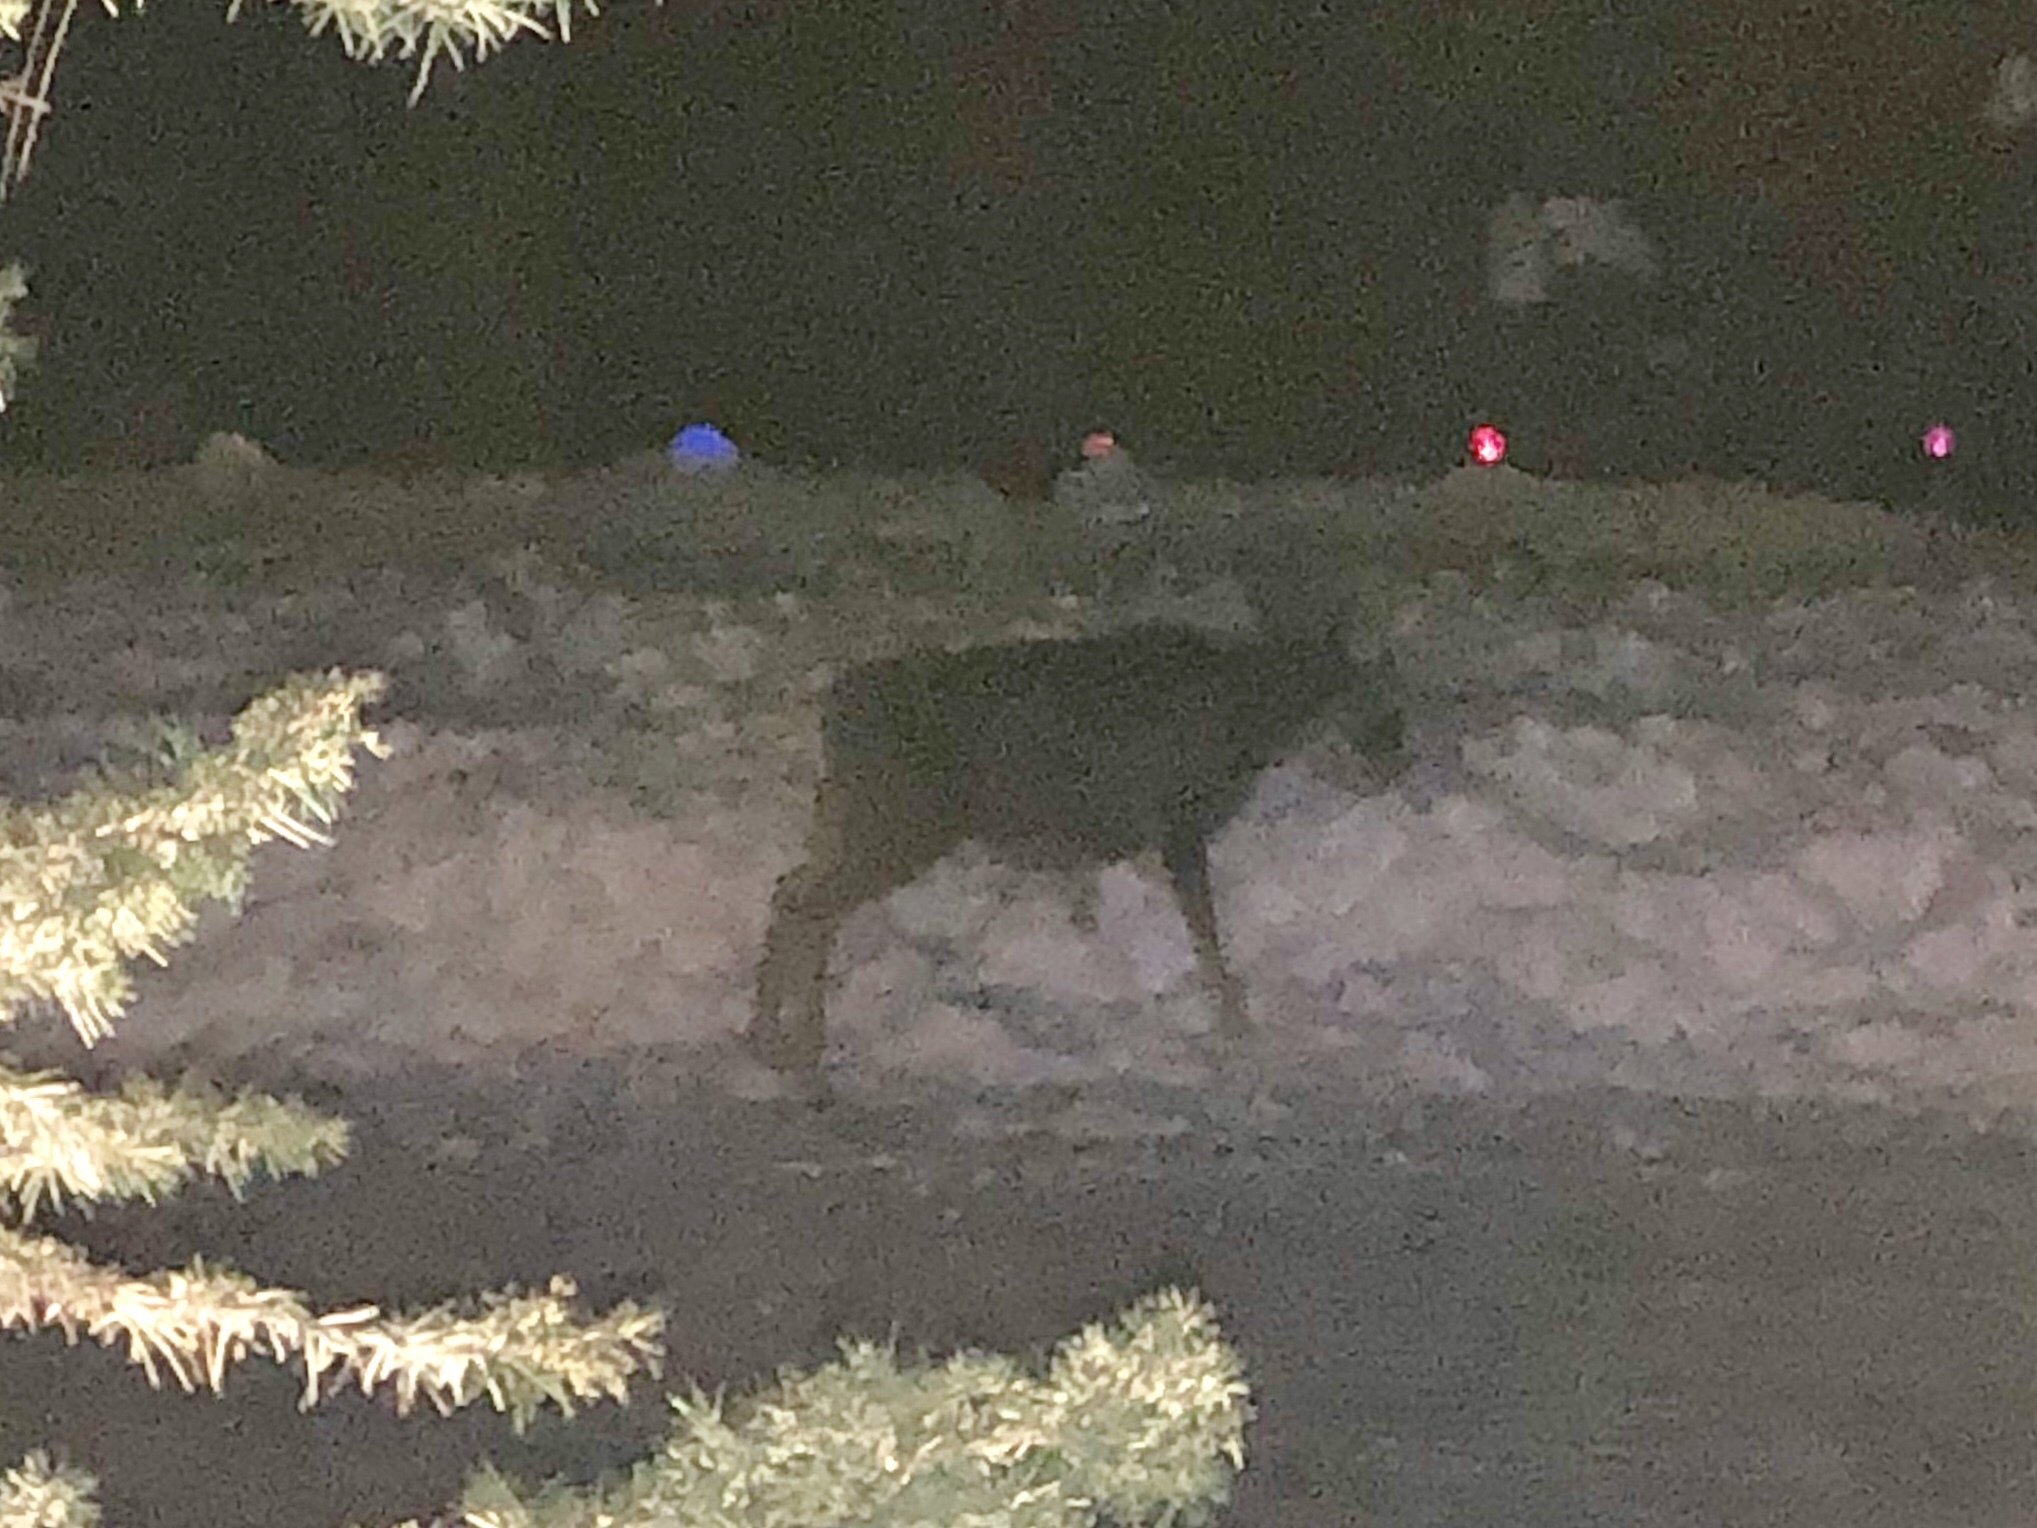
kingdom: Animalia
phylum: Chordata
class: Mammalia
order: Artiodactyla
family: Cervidae
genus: Odocoileus
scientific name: Odocoileus hemionus
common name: Mule deer
